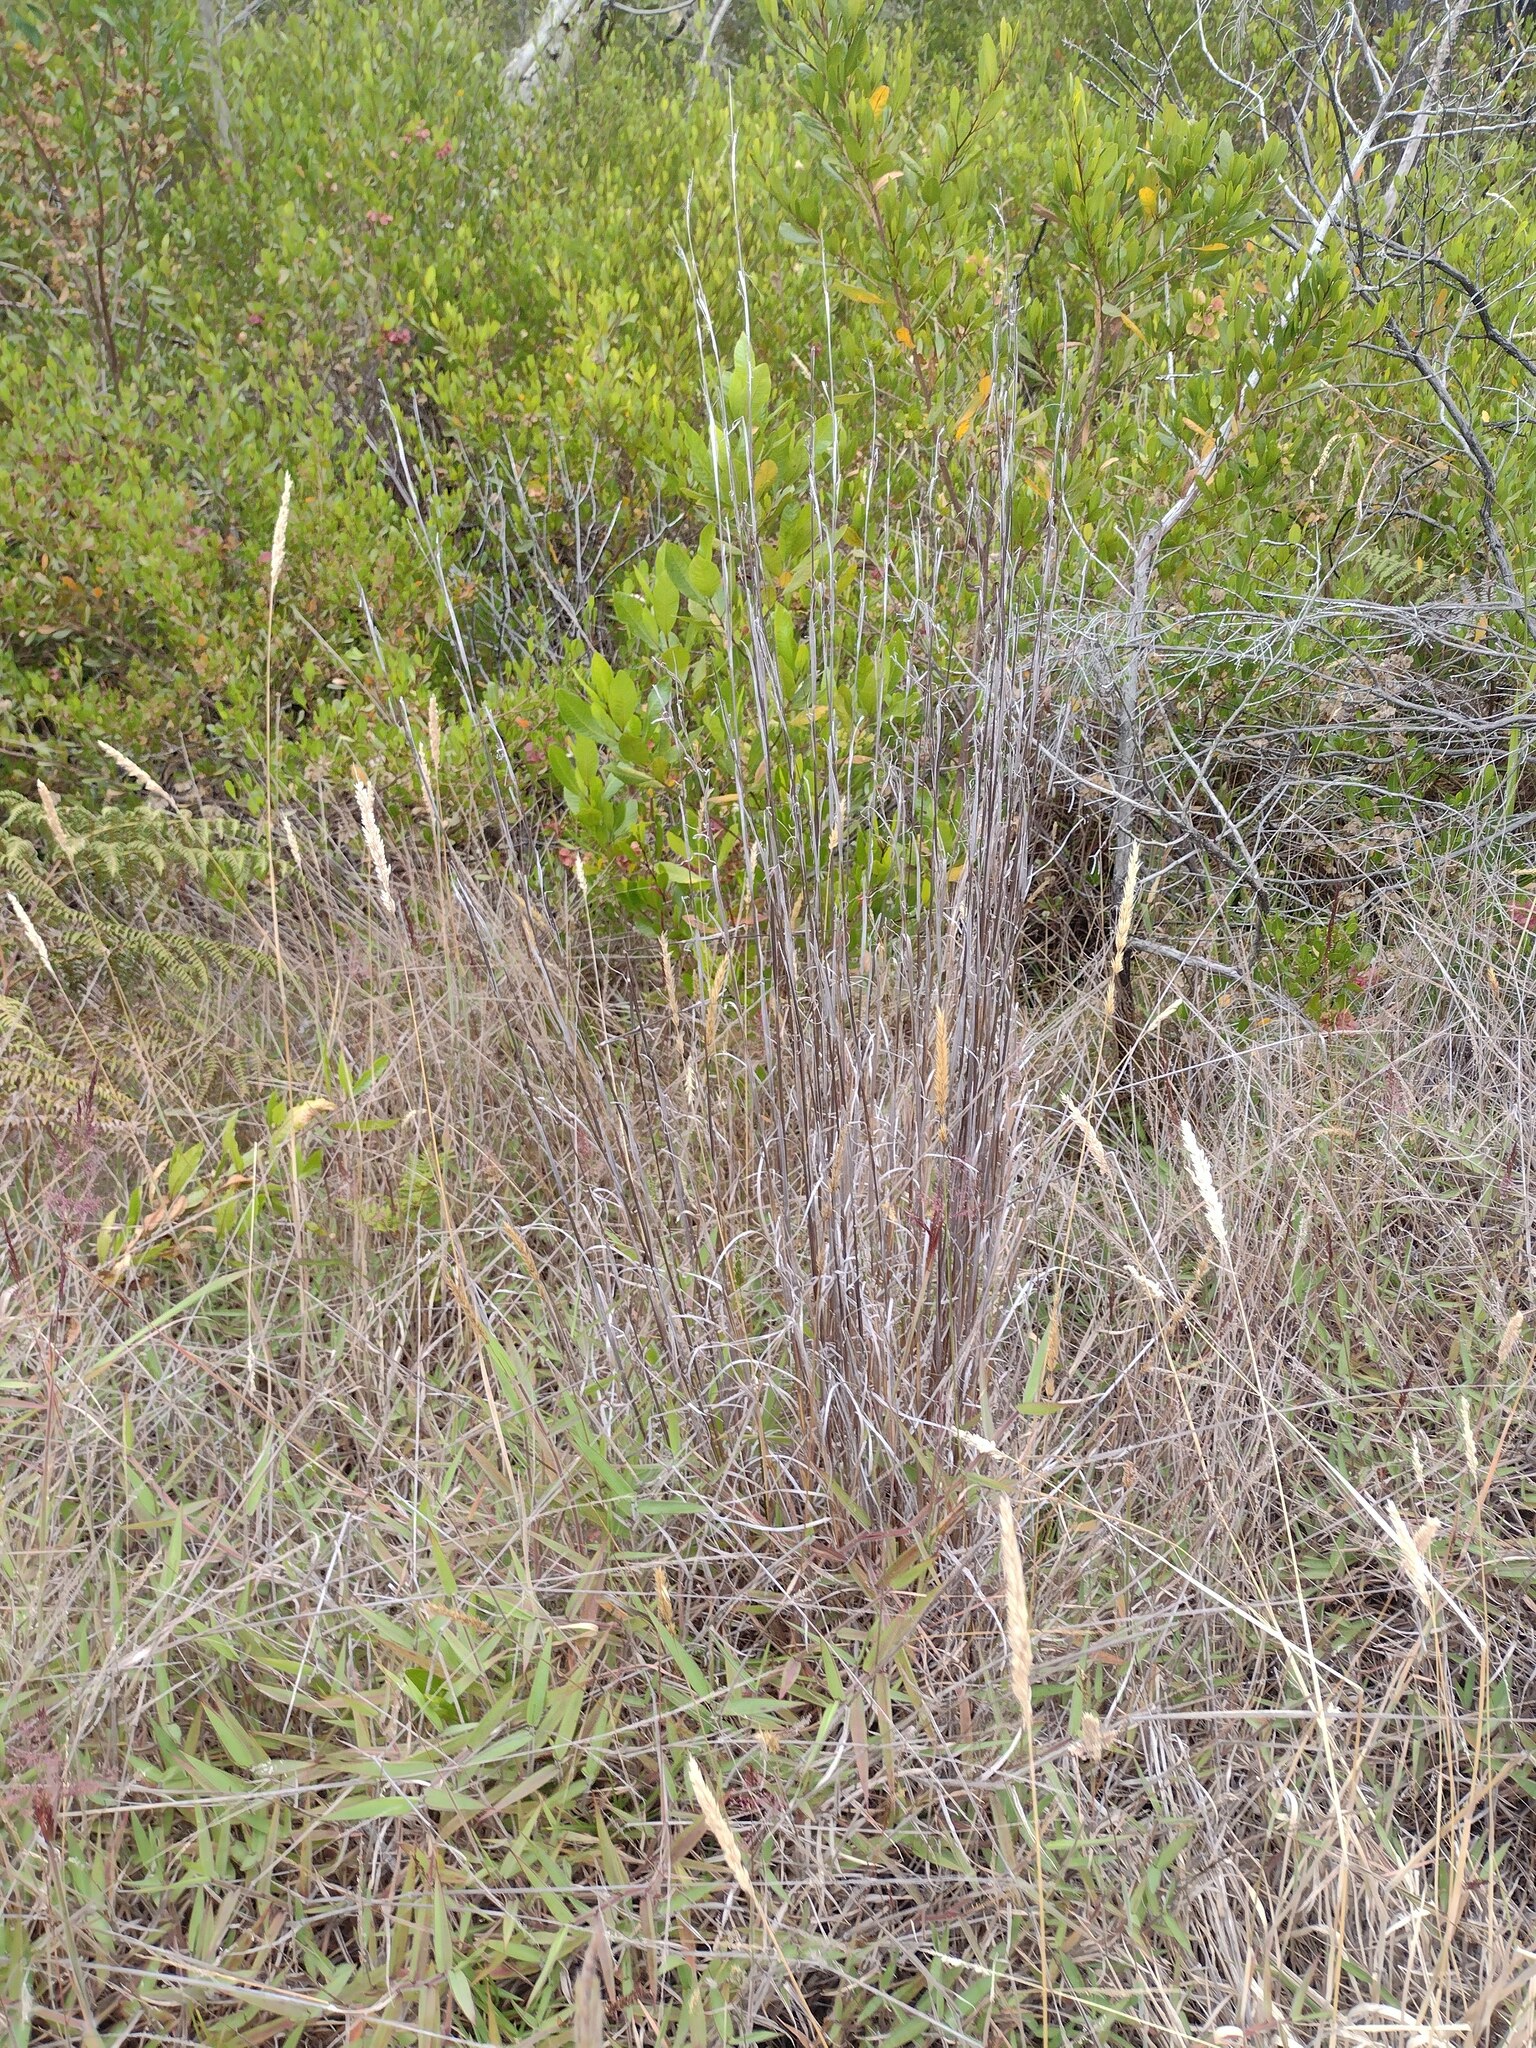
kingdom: Plantae
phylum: Tracheophyta
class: Liliopsida
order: Poales
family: Poaceae
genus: Andropogon
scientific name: Andropogon virginicus
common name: Broomsedge bluestem
